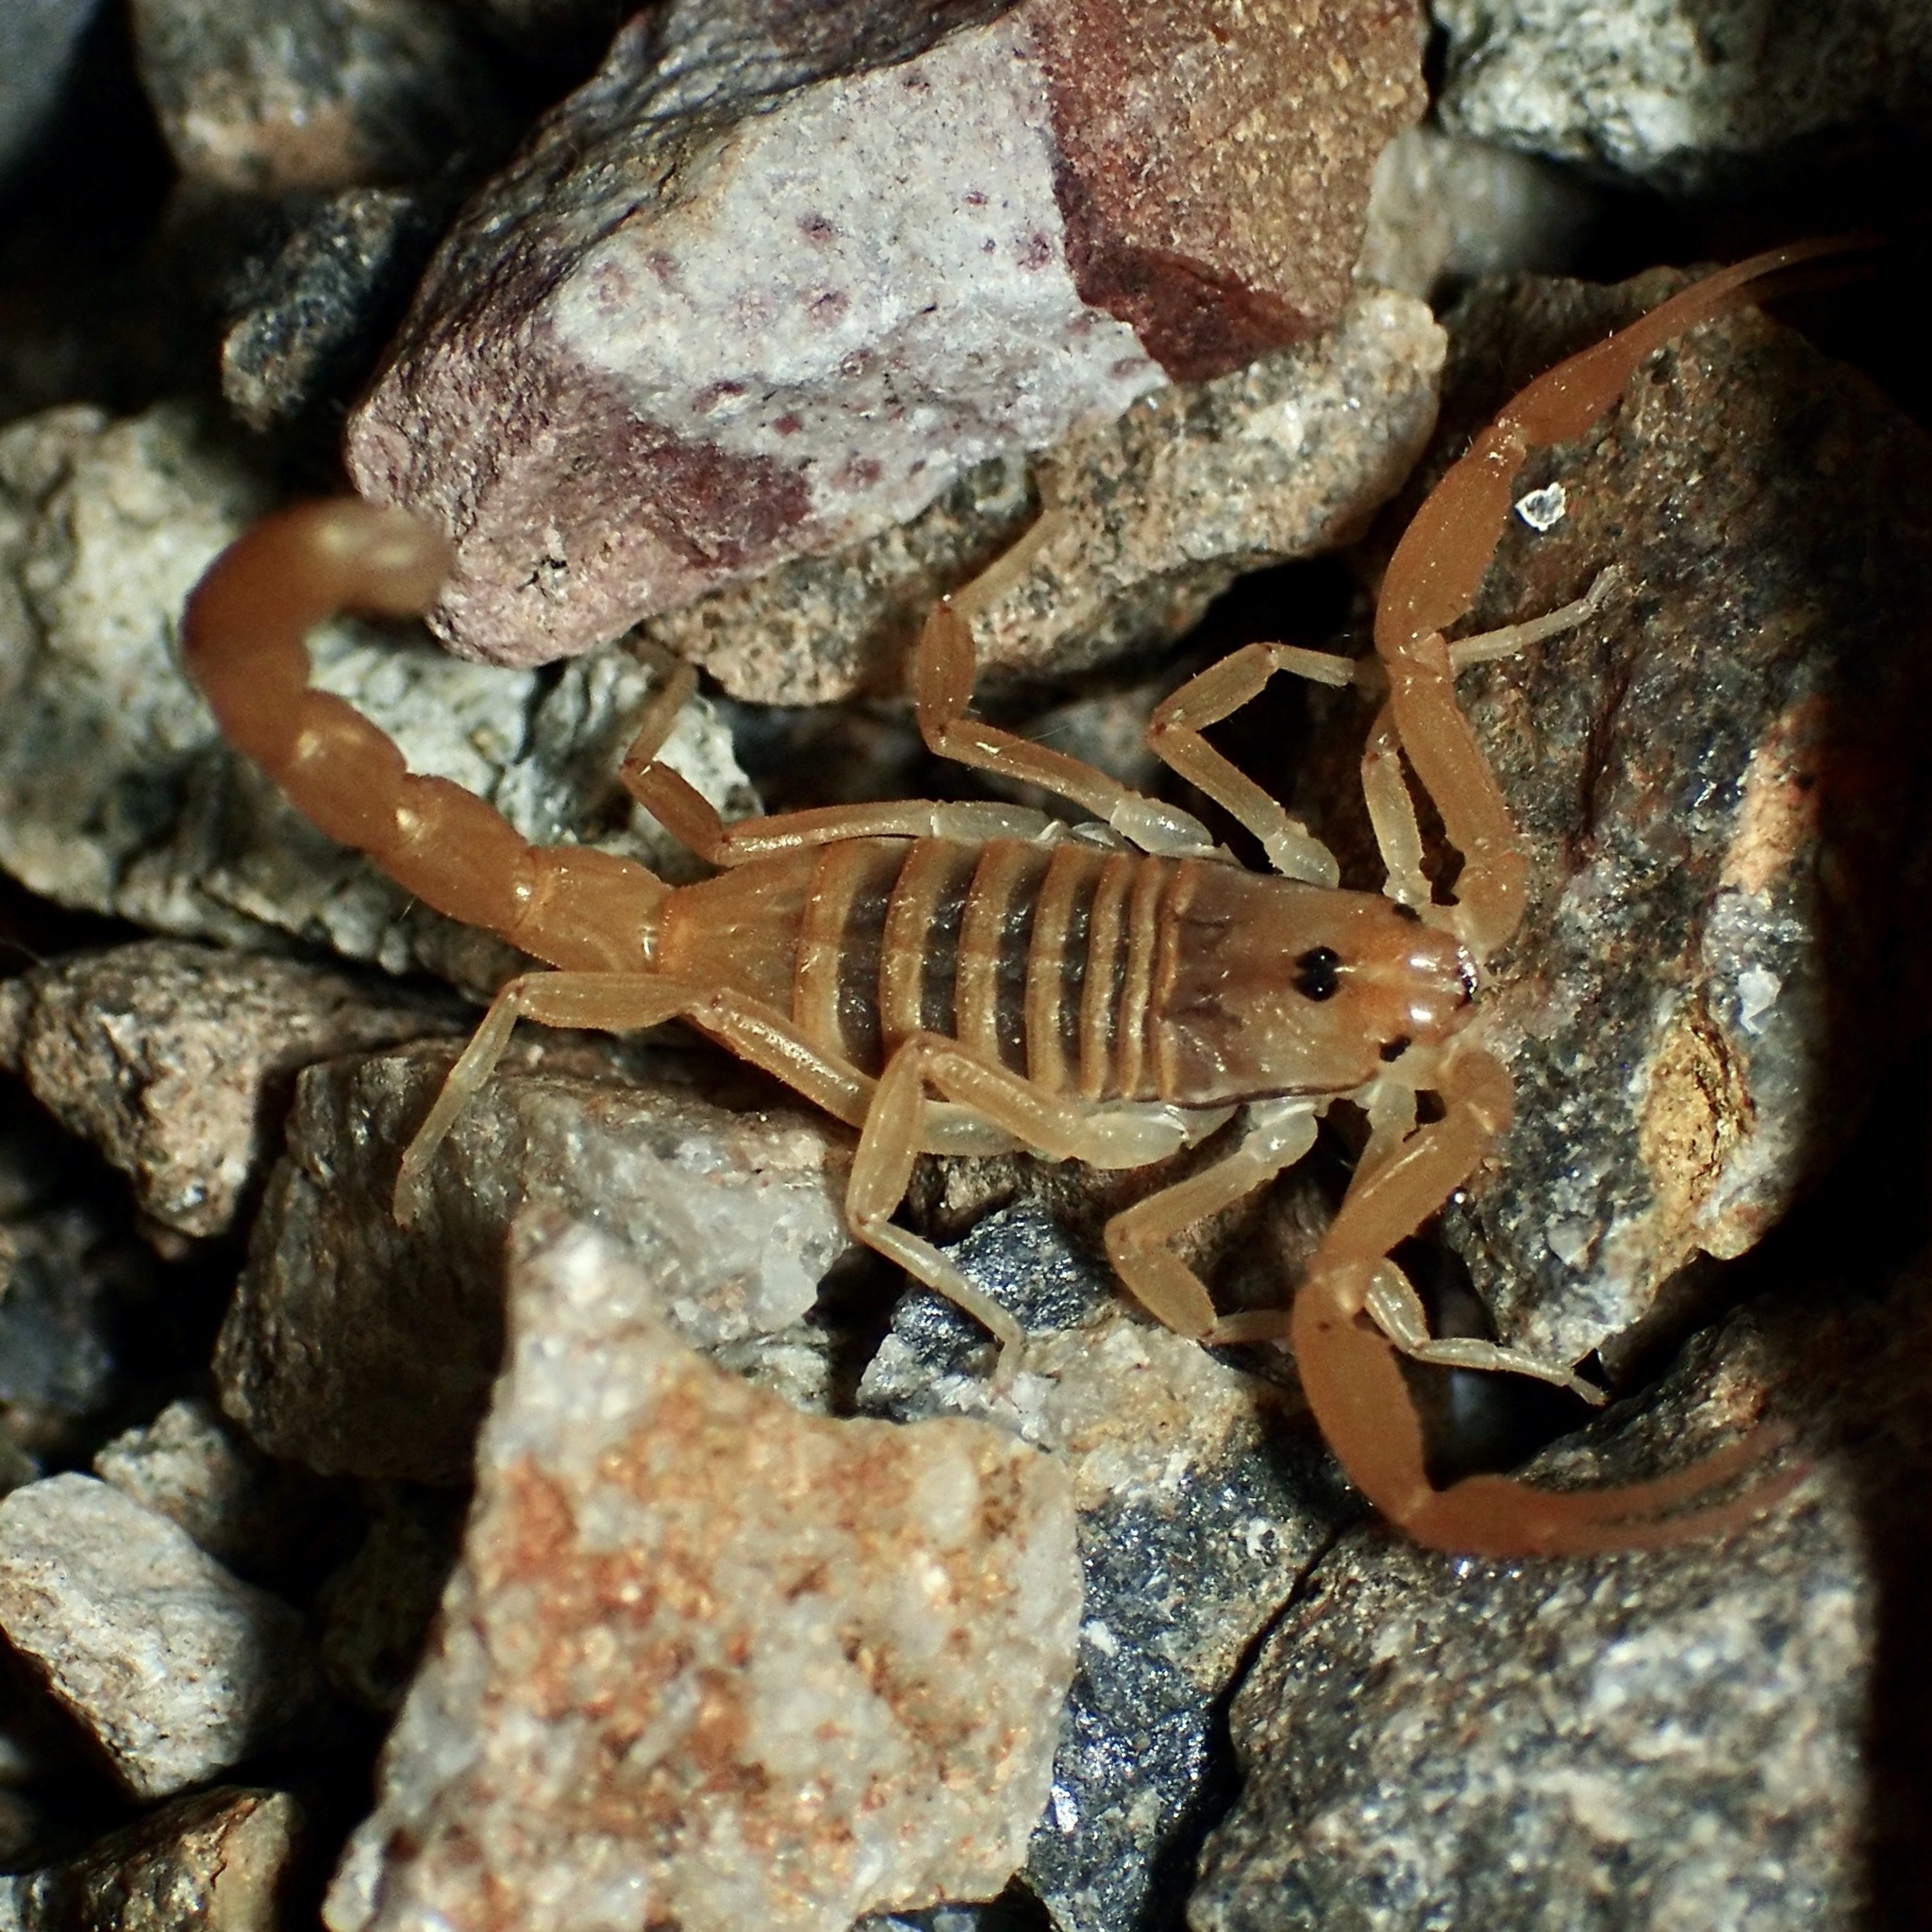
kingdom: Animalia
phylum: Arthropoda
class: Arachnida
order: Scorpiones
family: Buthidae
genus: Centruroides
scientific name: Centruroides sculpturatus
